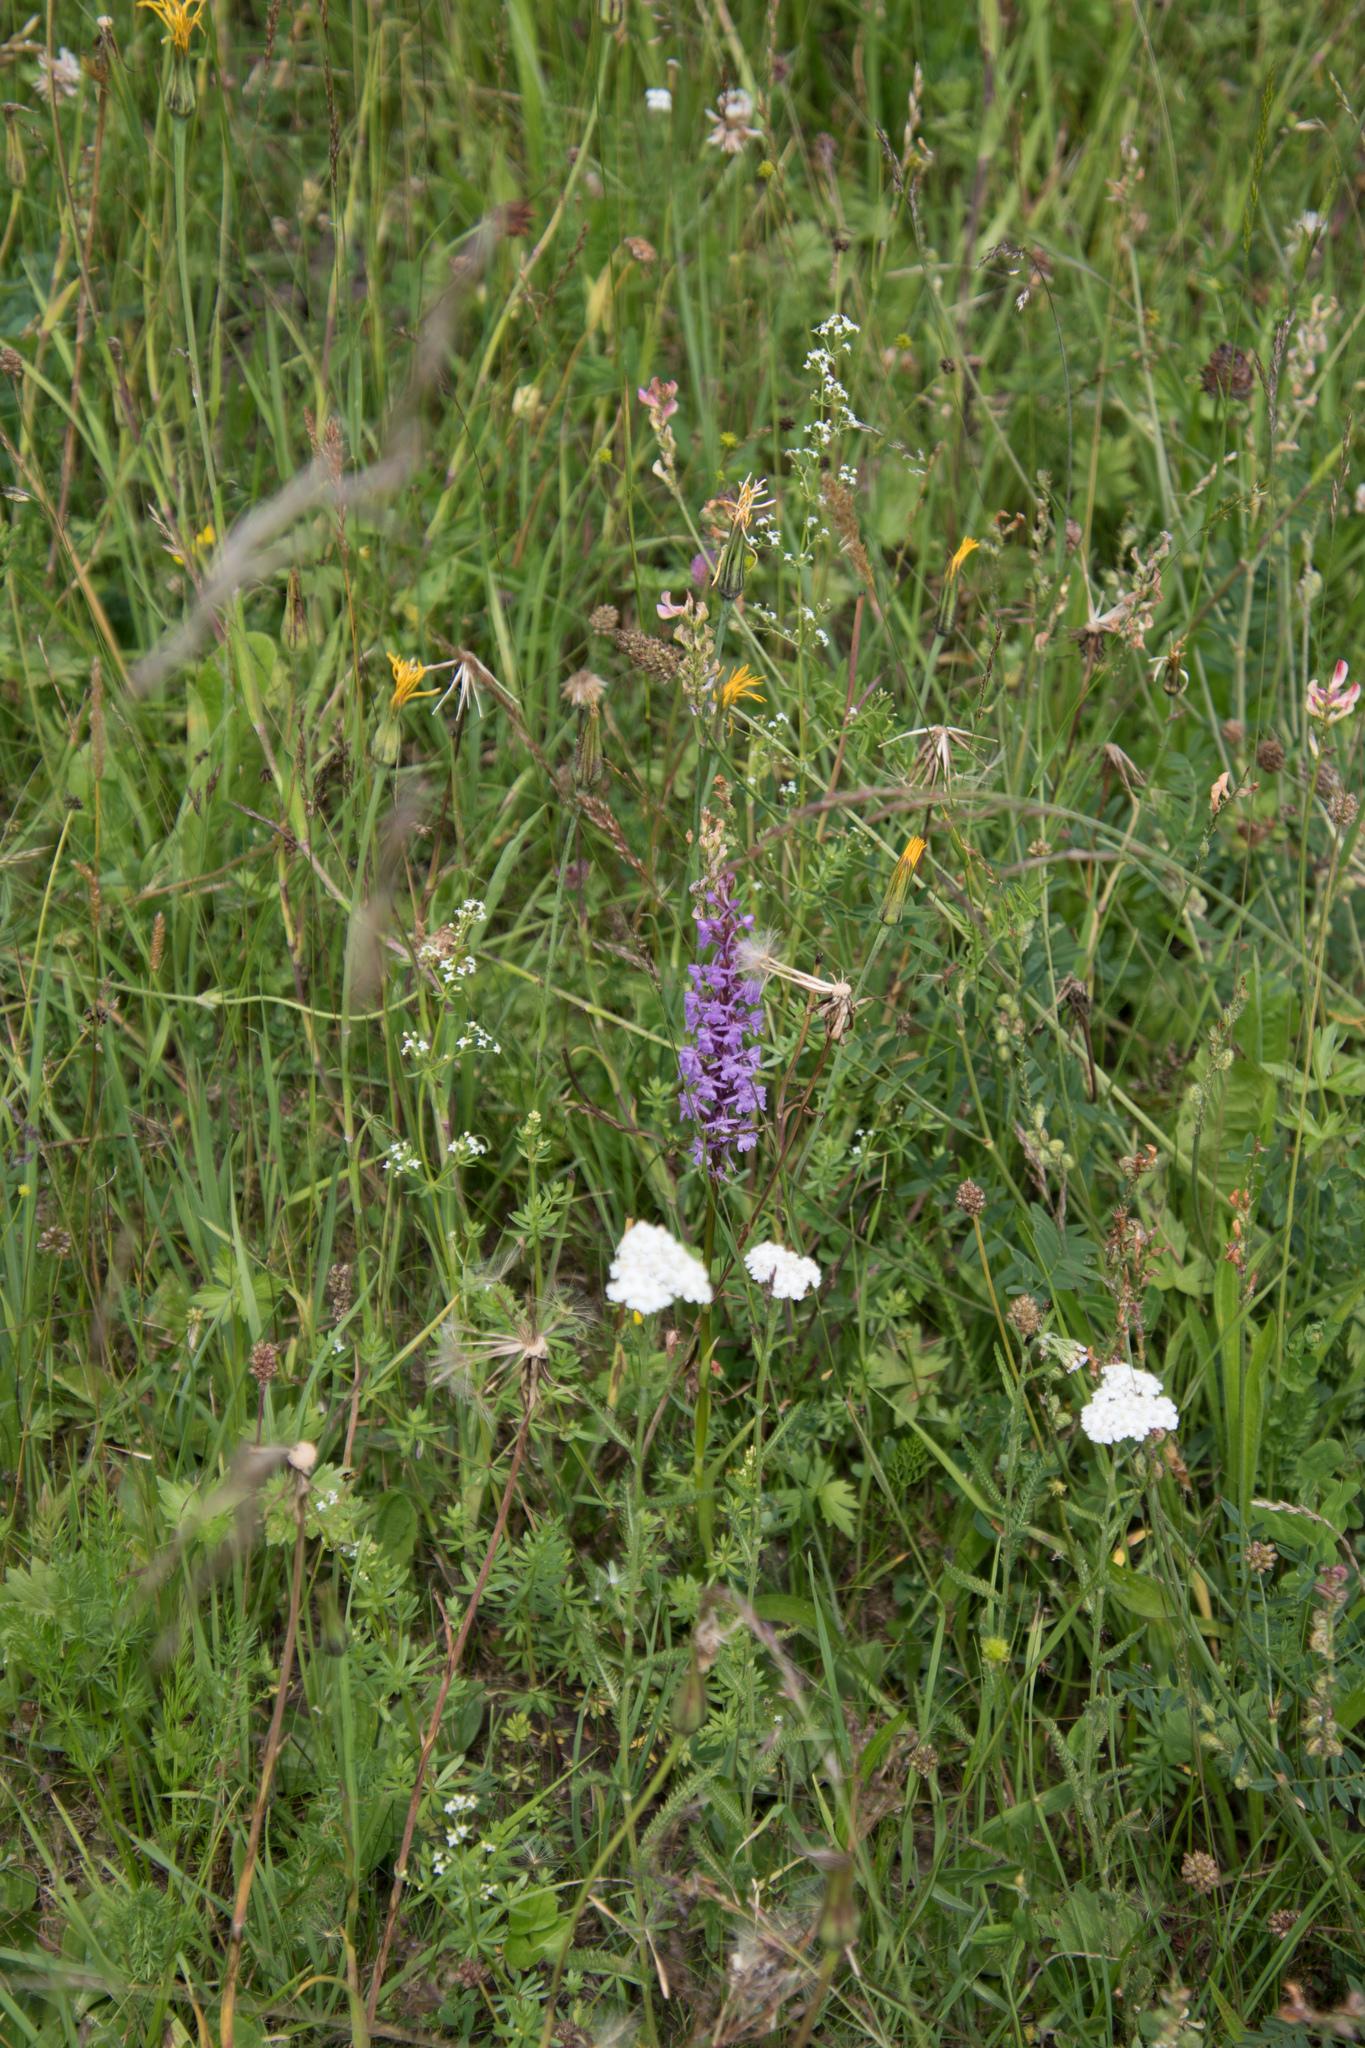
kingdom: Plantae
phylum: Tracheophyta
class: Liliopsida
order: Asparagales
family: Orchidaceae
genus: Gymnadenia
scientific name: Gymnadenia conopsea
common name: Fragrant orchid
